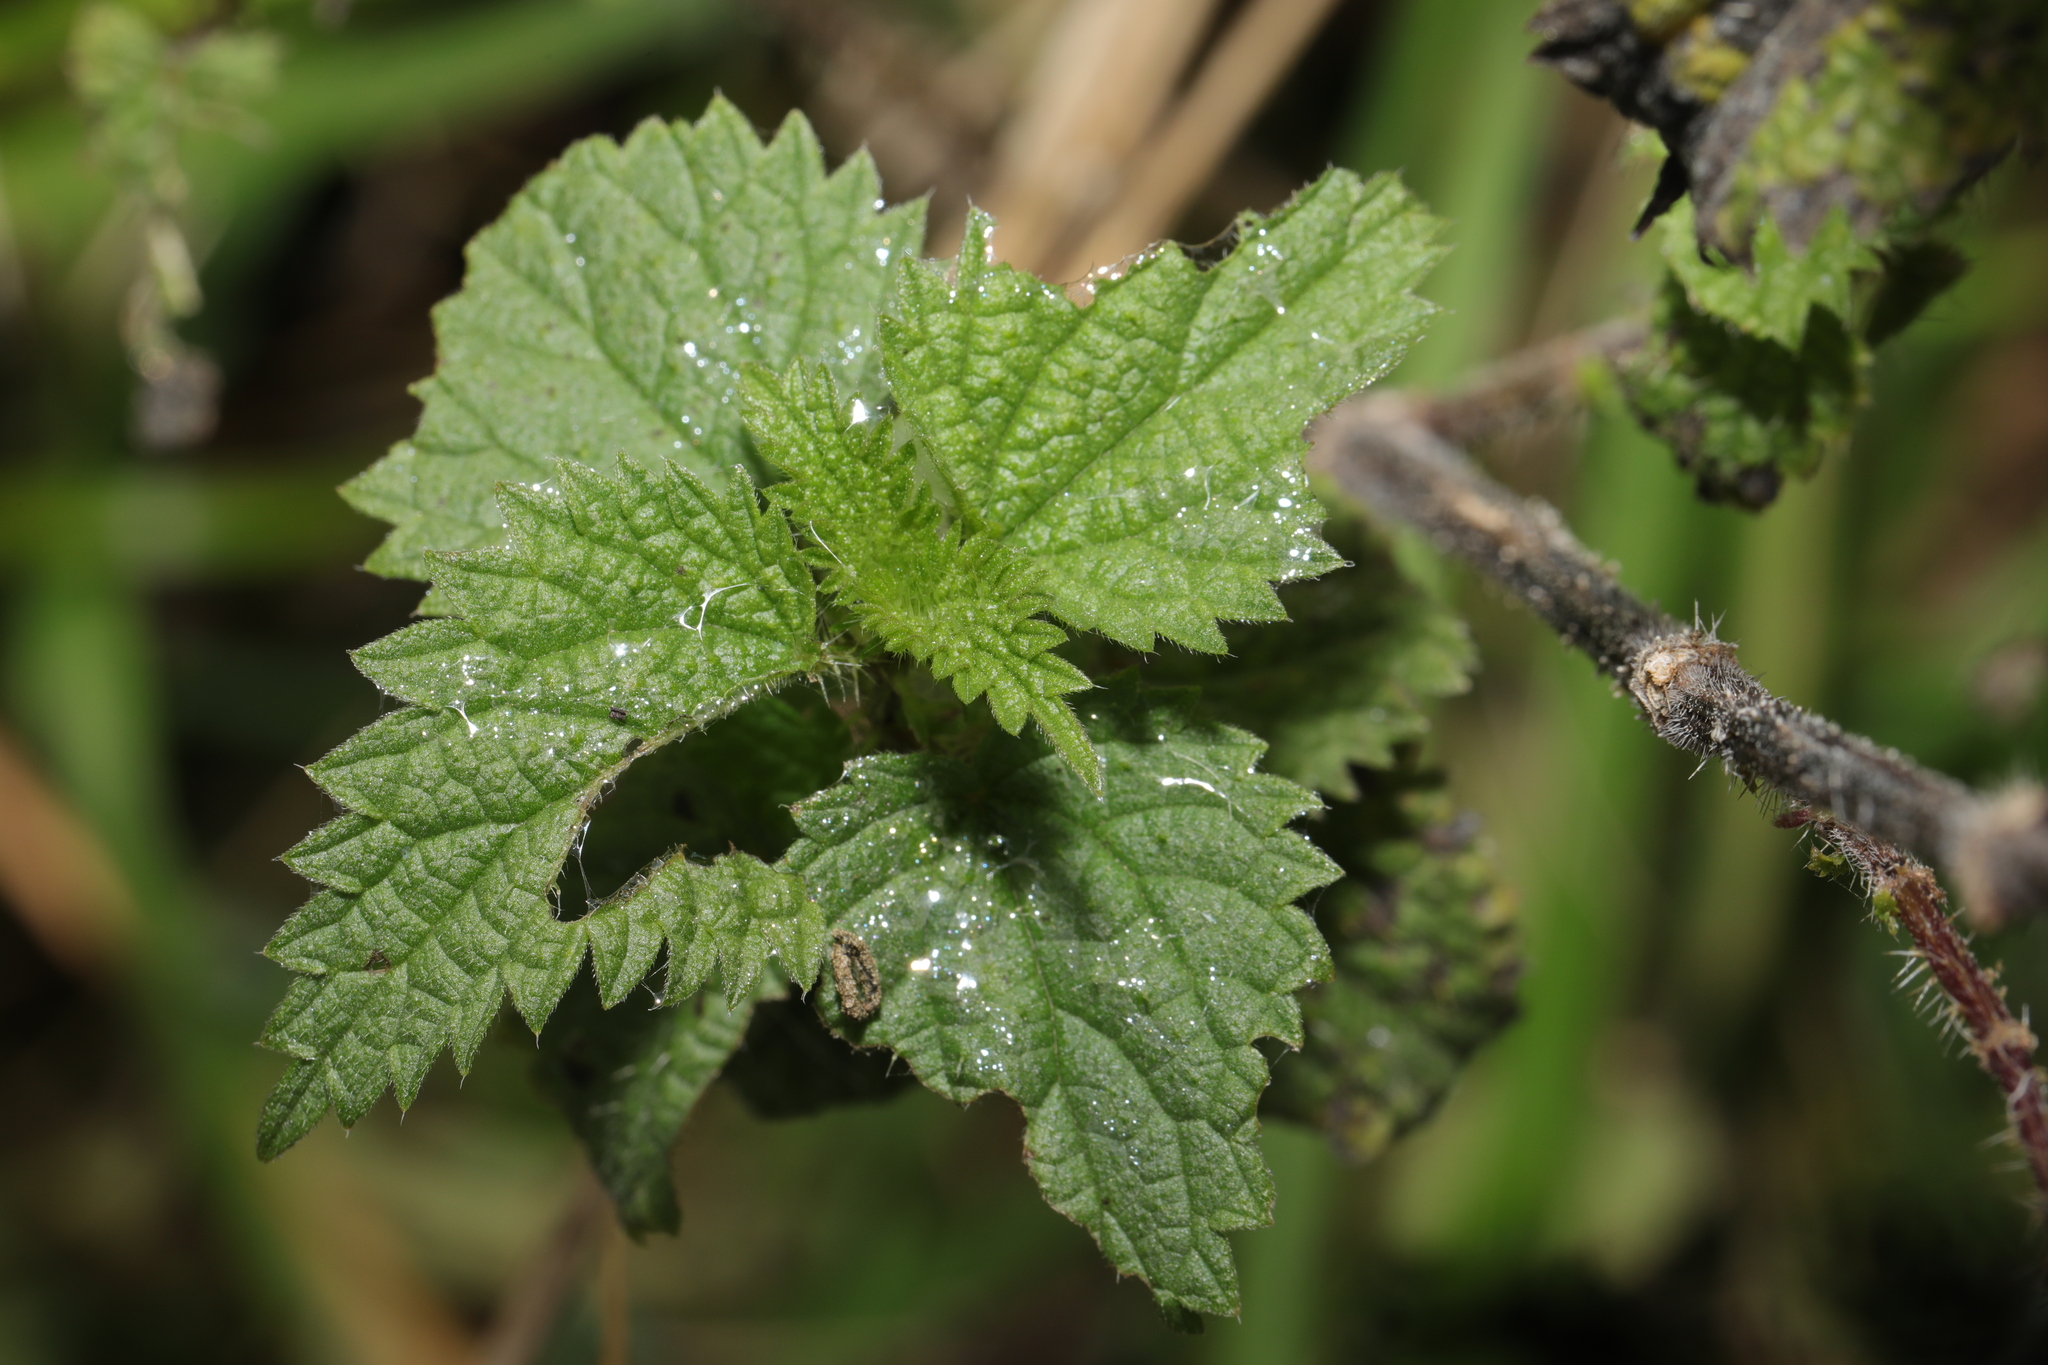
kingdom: Plantae
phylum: Tracheophyta
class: Magnoliopsida
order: Rosales
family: Urticaceae
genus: Urtica
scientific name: Urtica dioica
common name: Common nettle
